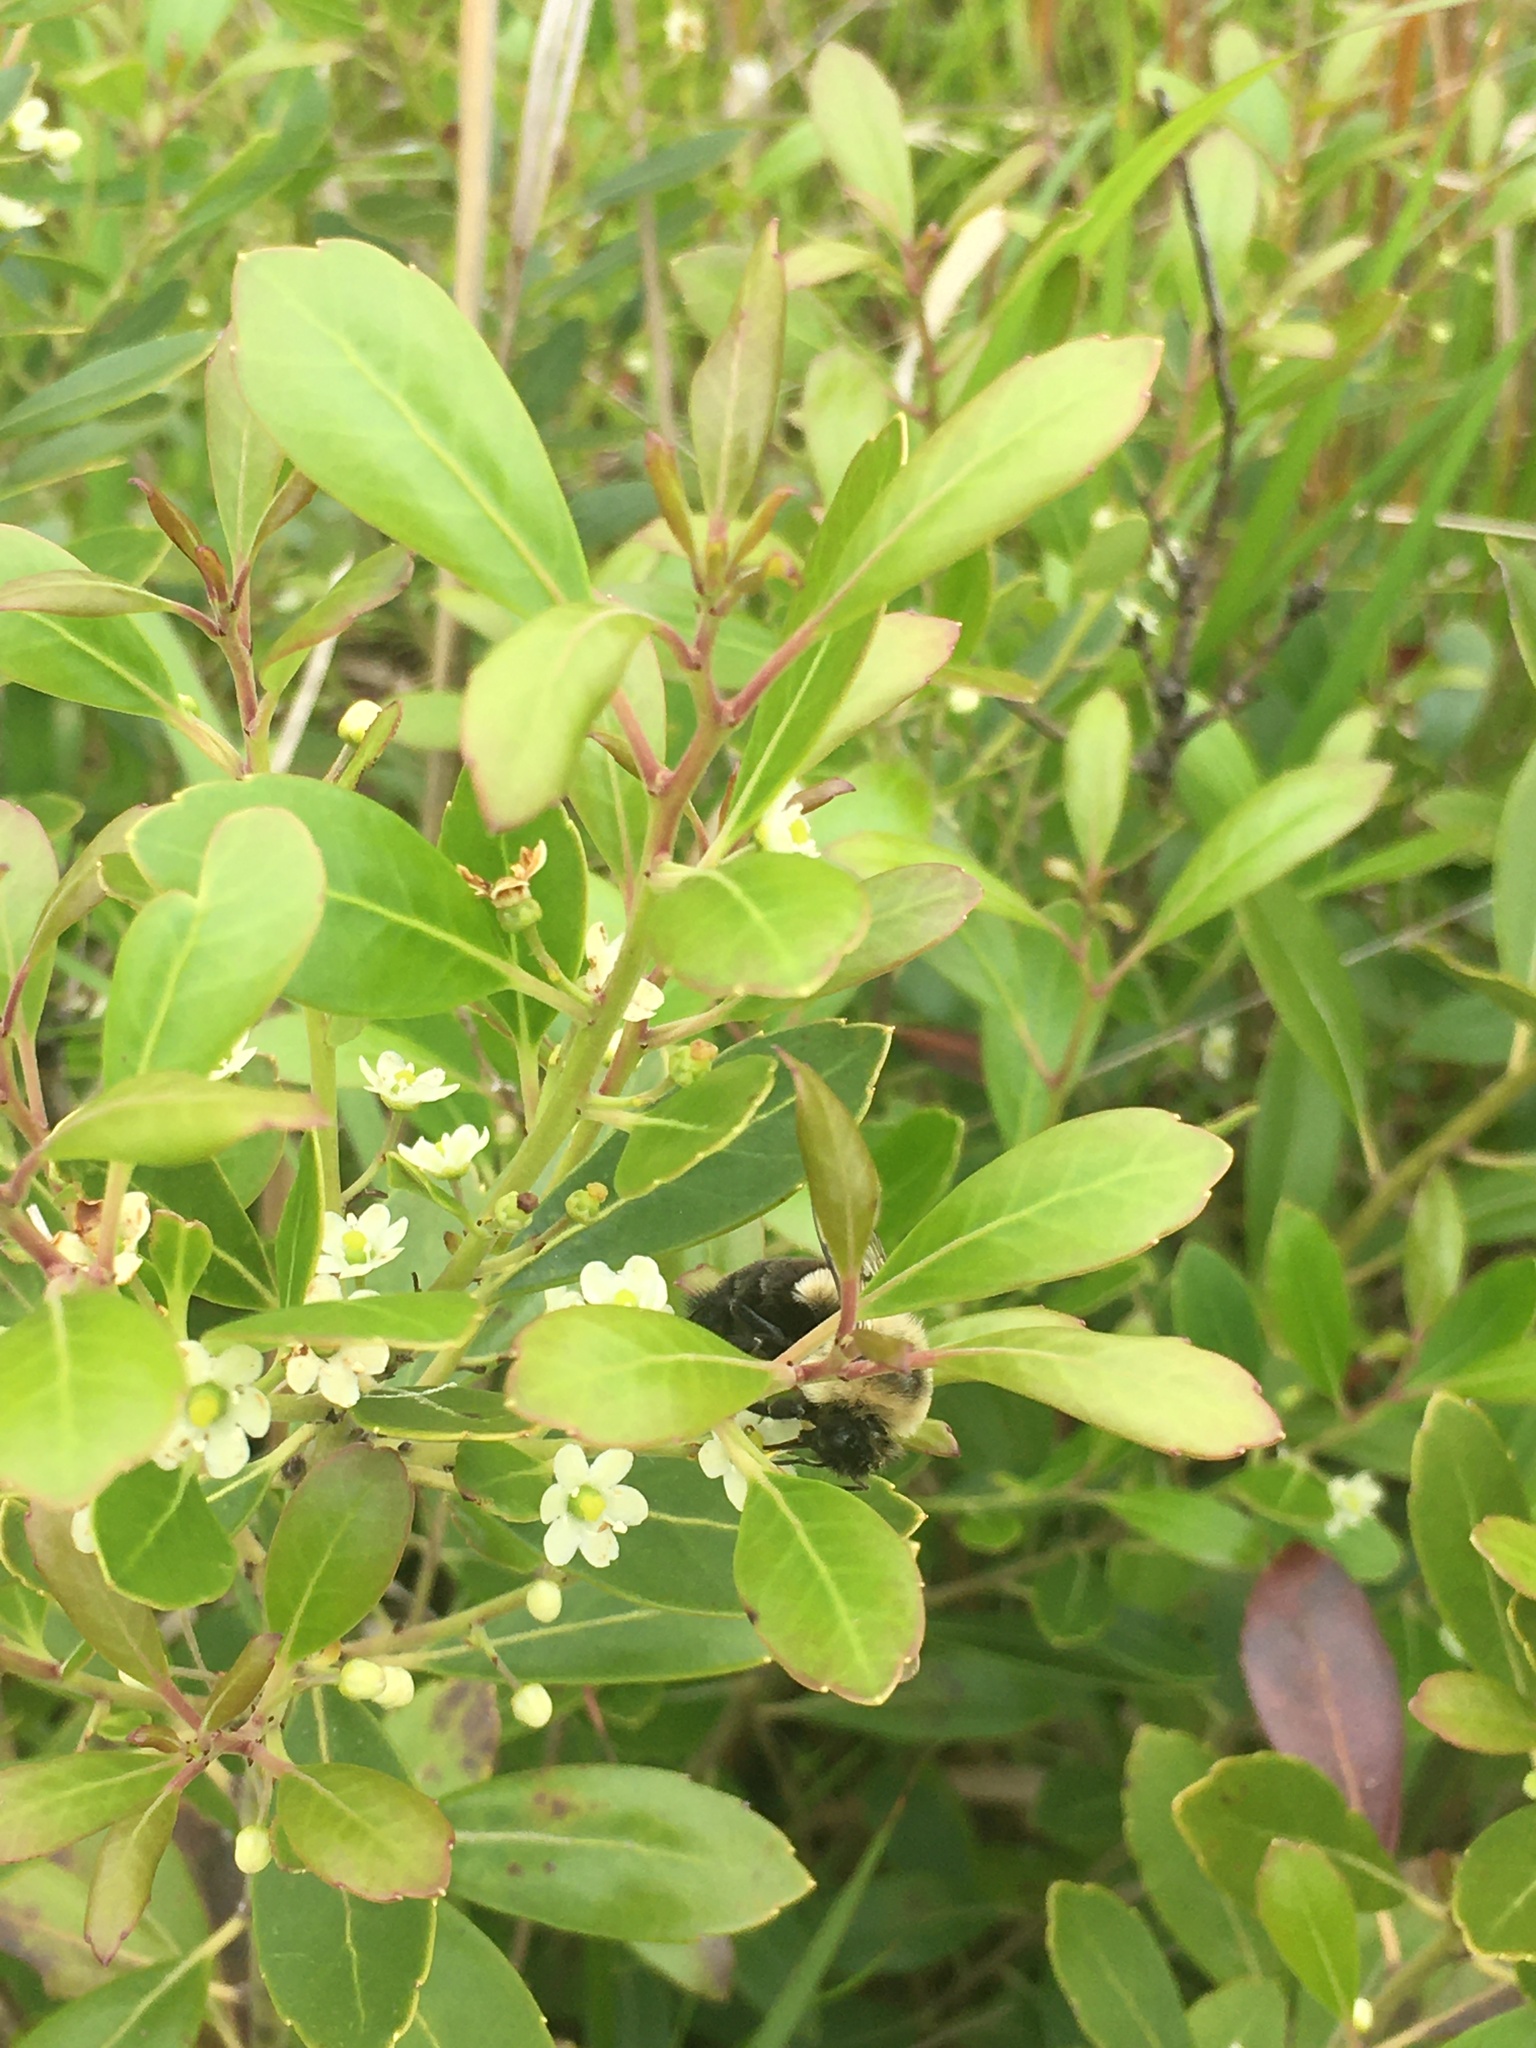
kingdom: Animalia
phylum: Arthropoda
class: Insecta
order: Hymenoptera
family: Apidae
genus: Bombus
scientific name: Bombus impatiens
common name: Common eastern bumble bee
